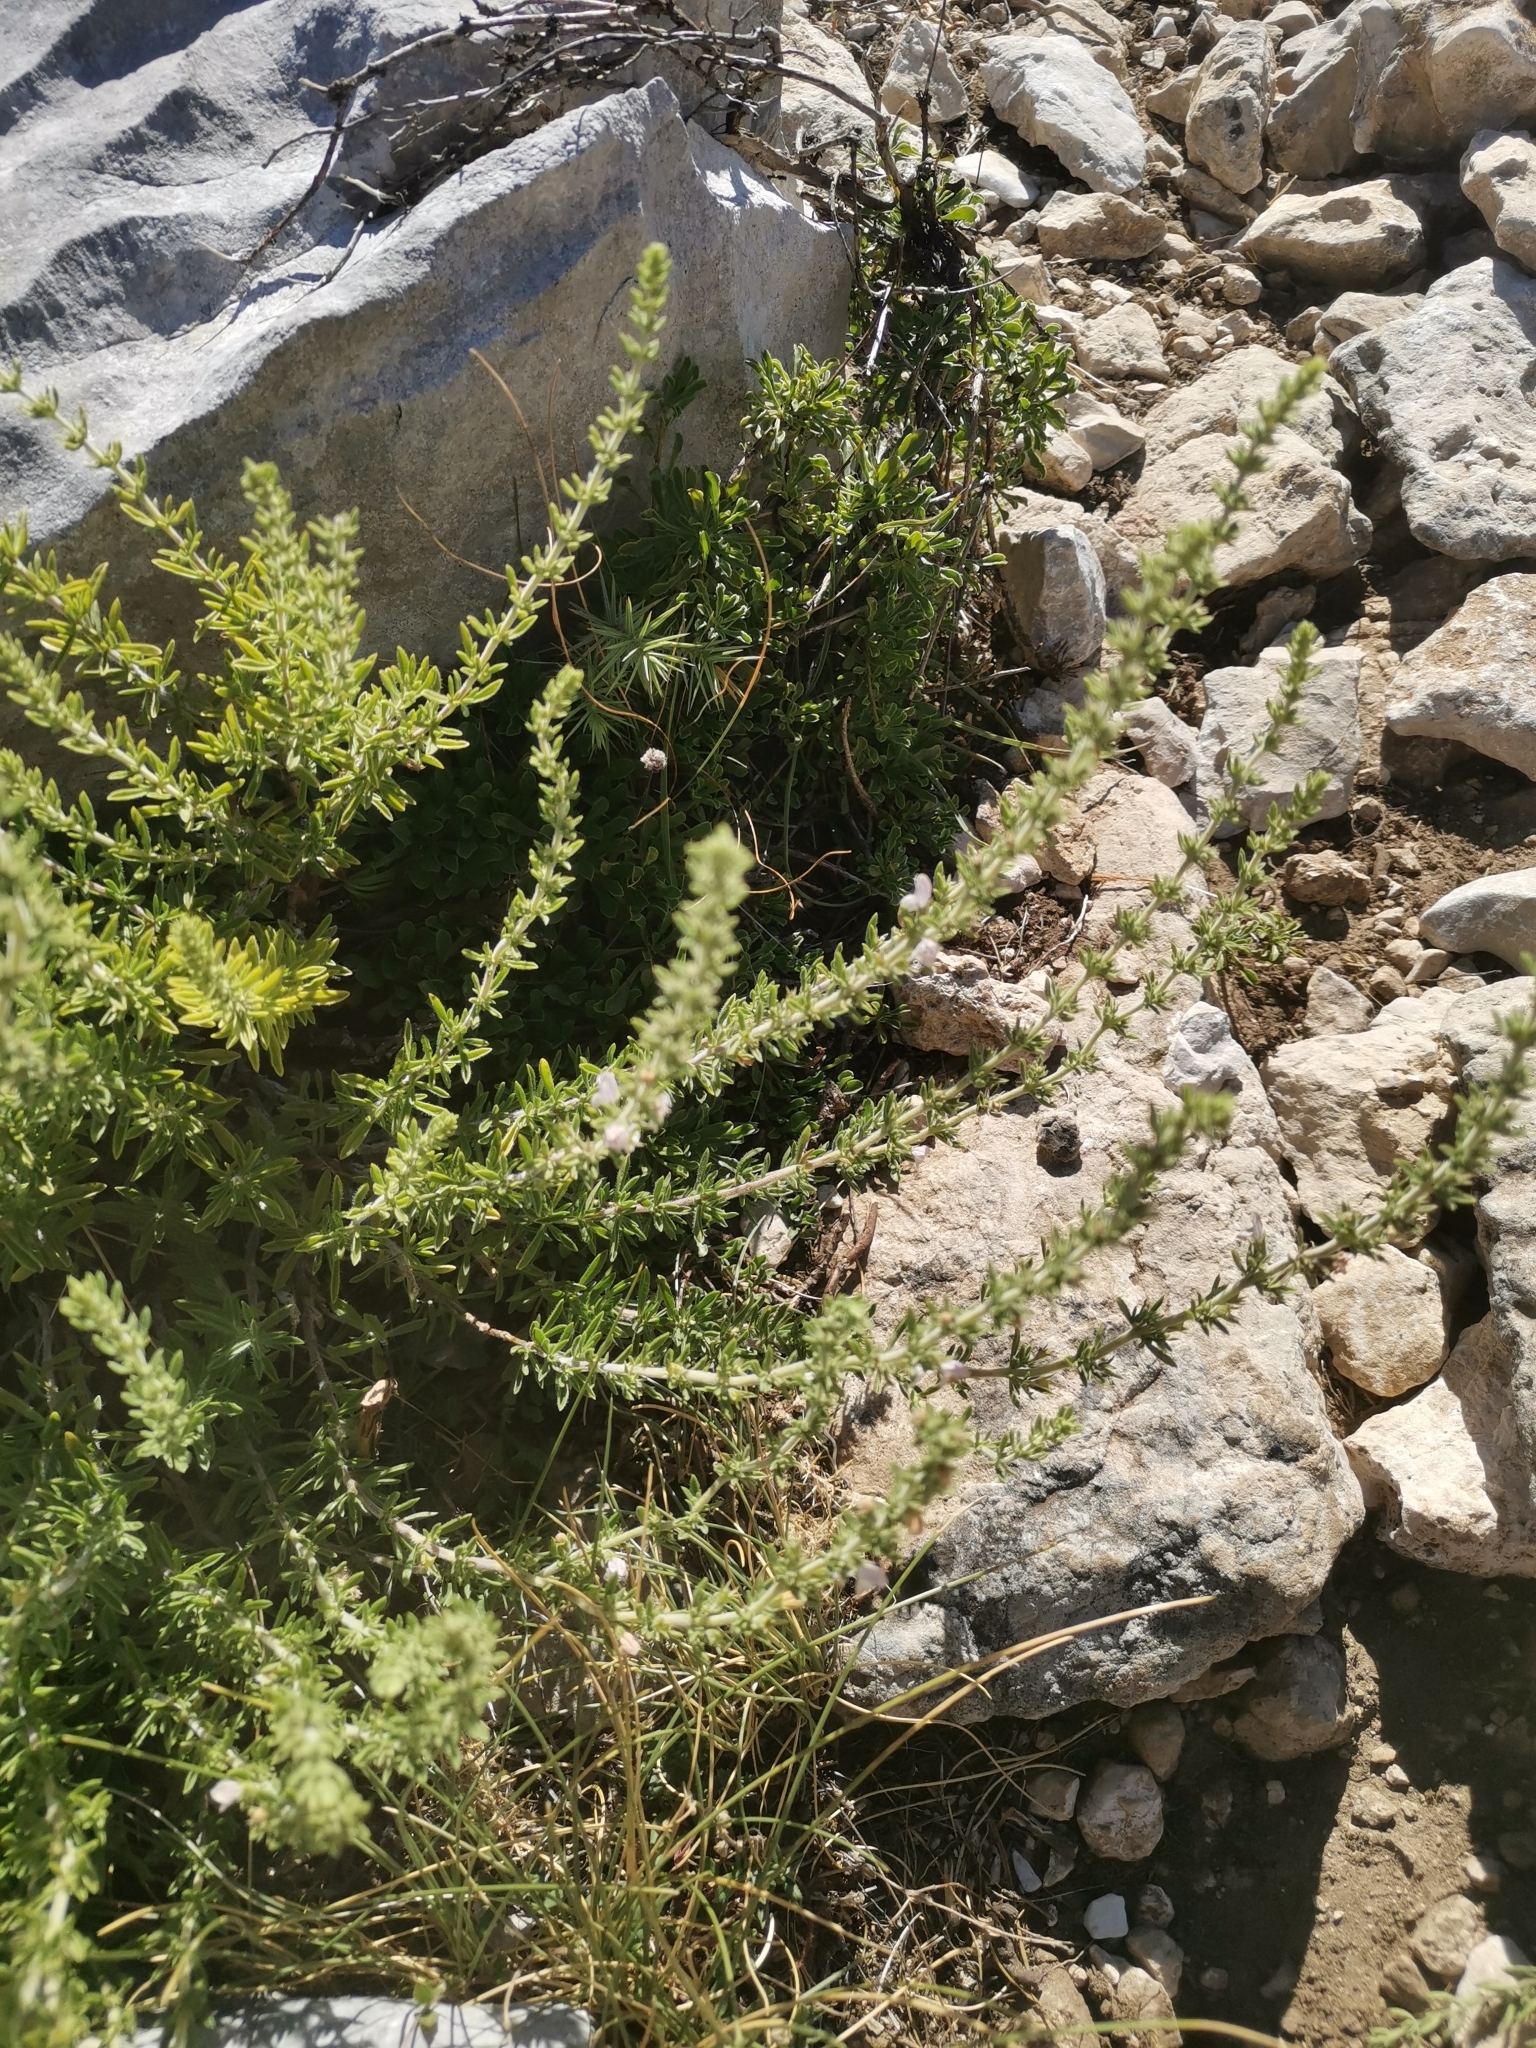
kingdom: Plantae
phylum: Tracheophyta
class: Magnoliopsida
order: Lamiales
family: Lamiaceae
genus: Satureja
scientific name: Satureja cuneifolia
